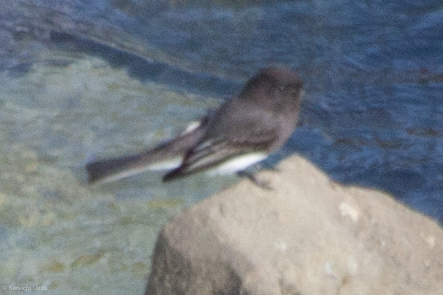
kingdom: Animalia
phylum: Chordata
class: Aves
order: Passeriformes
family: Tyrannidae
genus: Sayornis
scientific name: Sayornis nigricans
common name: Black phoebe
